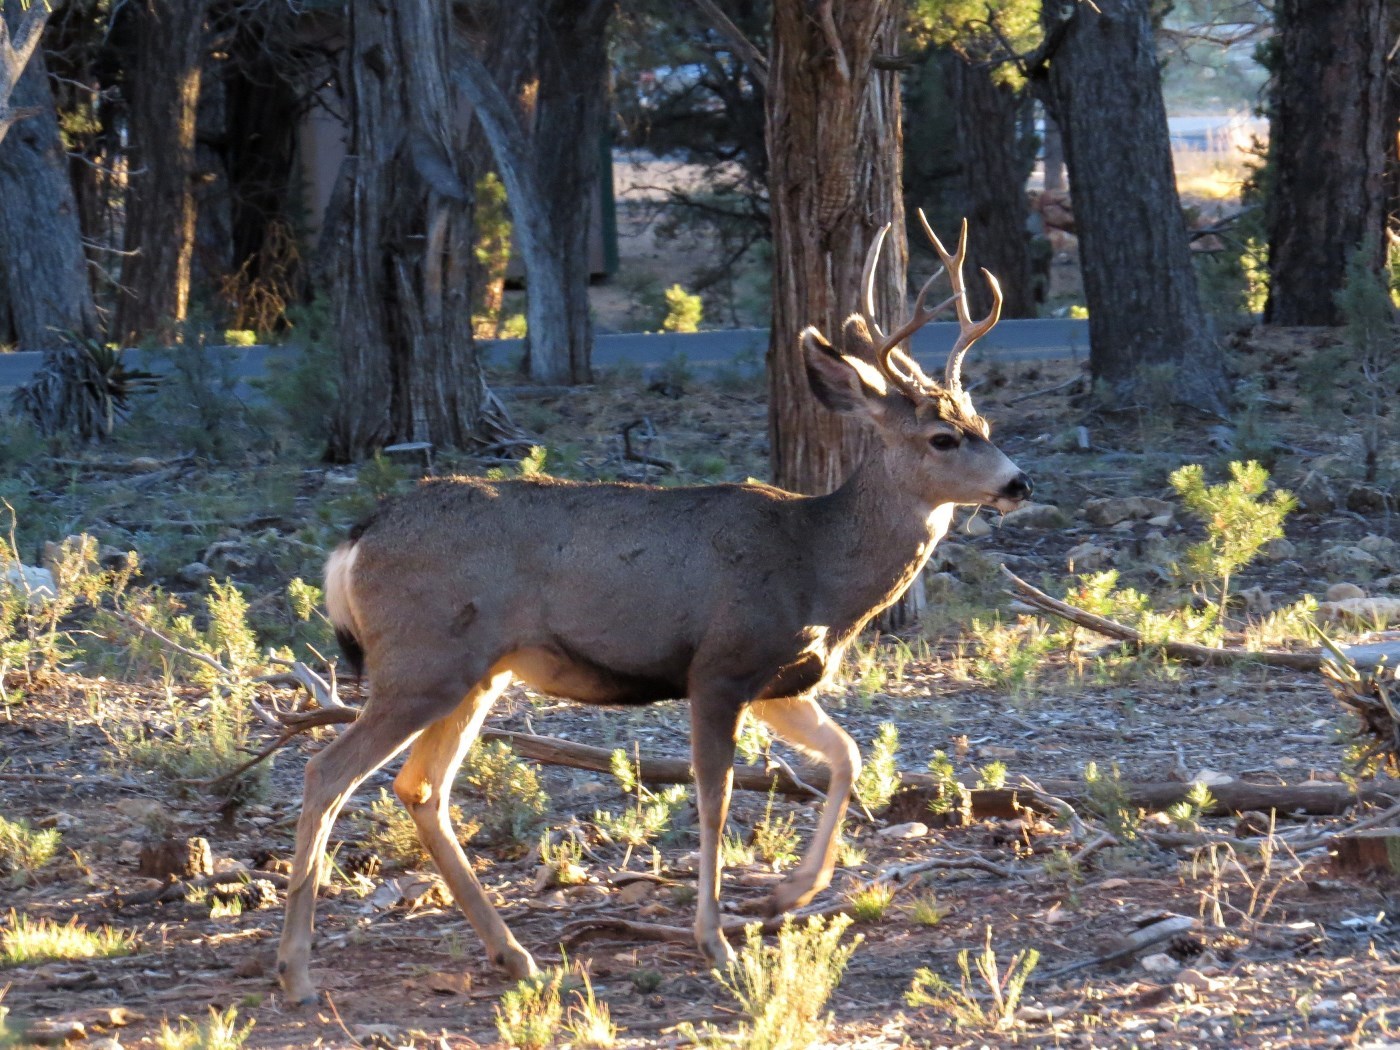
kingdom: Animalia
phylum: Chordata
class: Mammalia
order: Artiodactyla
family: Cervidae
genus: Odocoileus
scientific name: Odocoileus hemionus
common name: Mule deer
